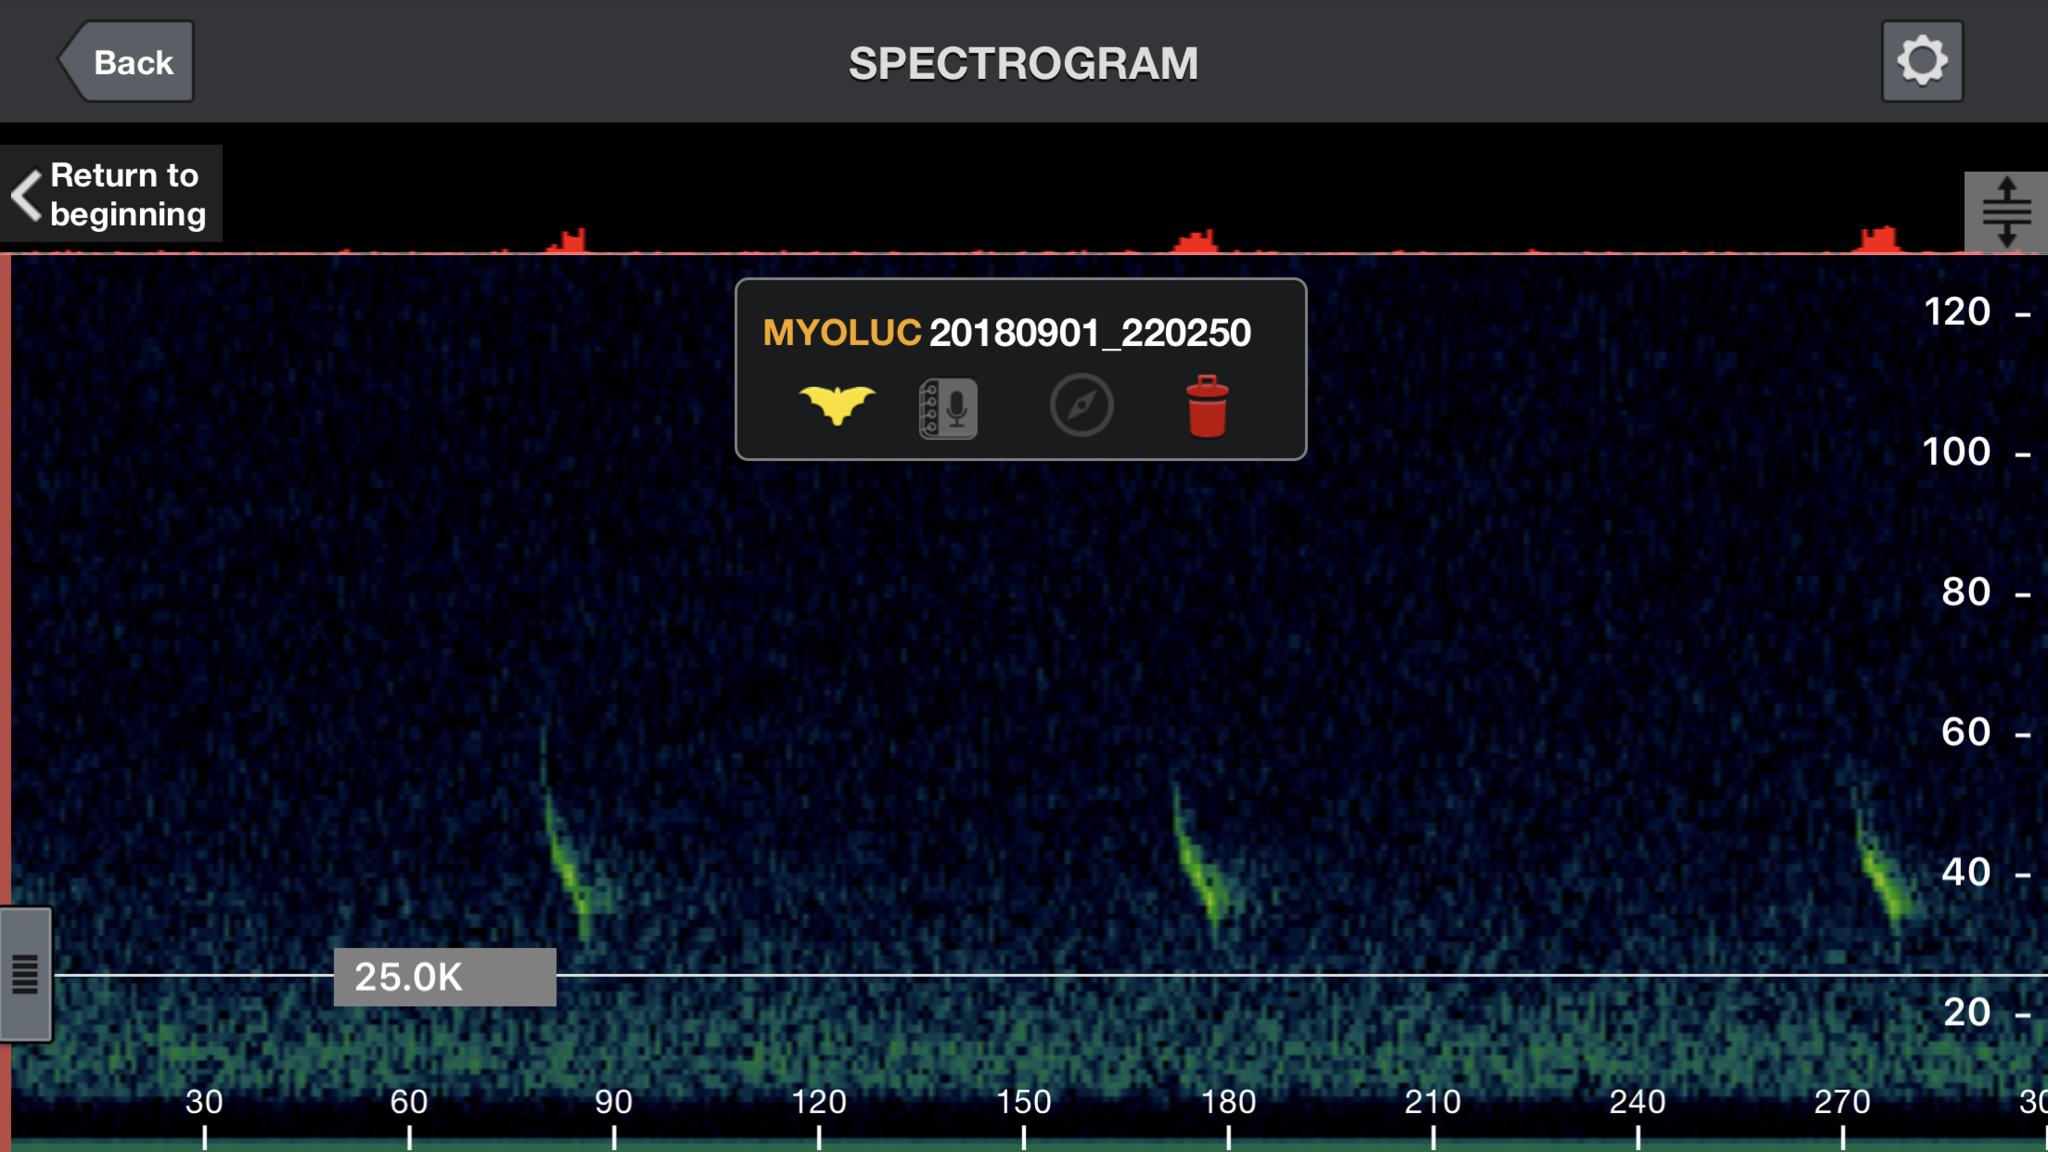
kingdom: Animalia
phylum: Chordata
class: Mammalia
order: Chiroptera
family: Vespertilionidae
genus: Myotis
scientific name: Myotis lucifugus
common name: Little brown bat
